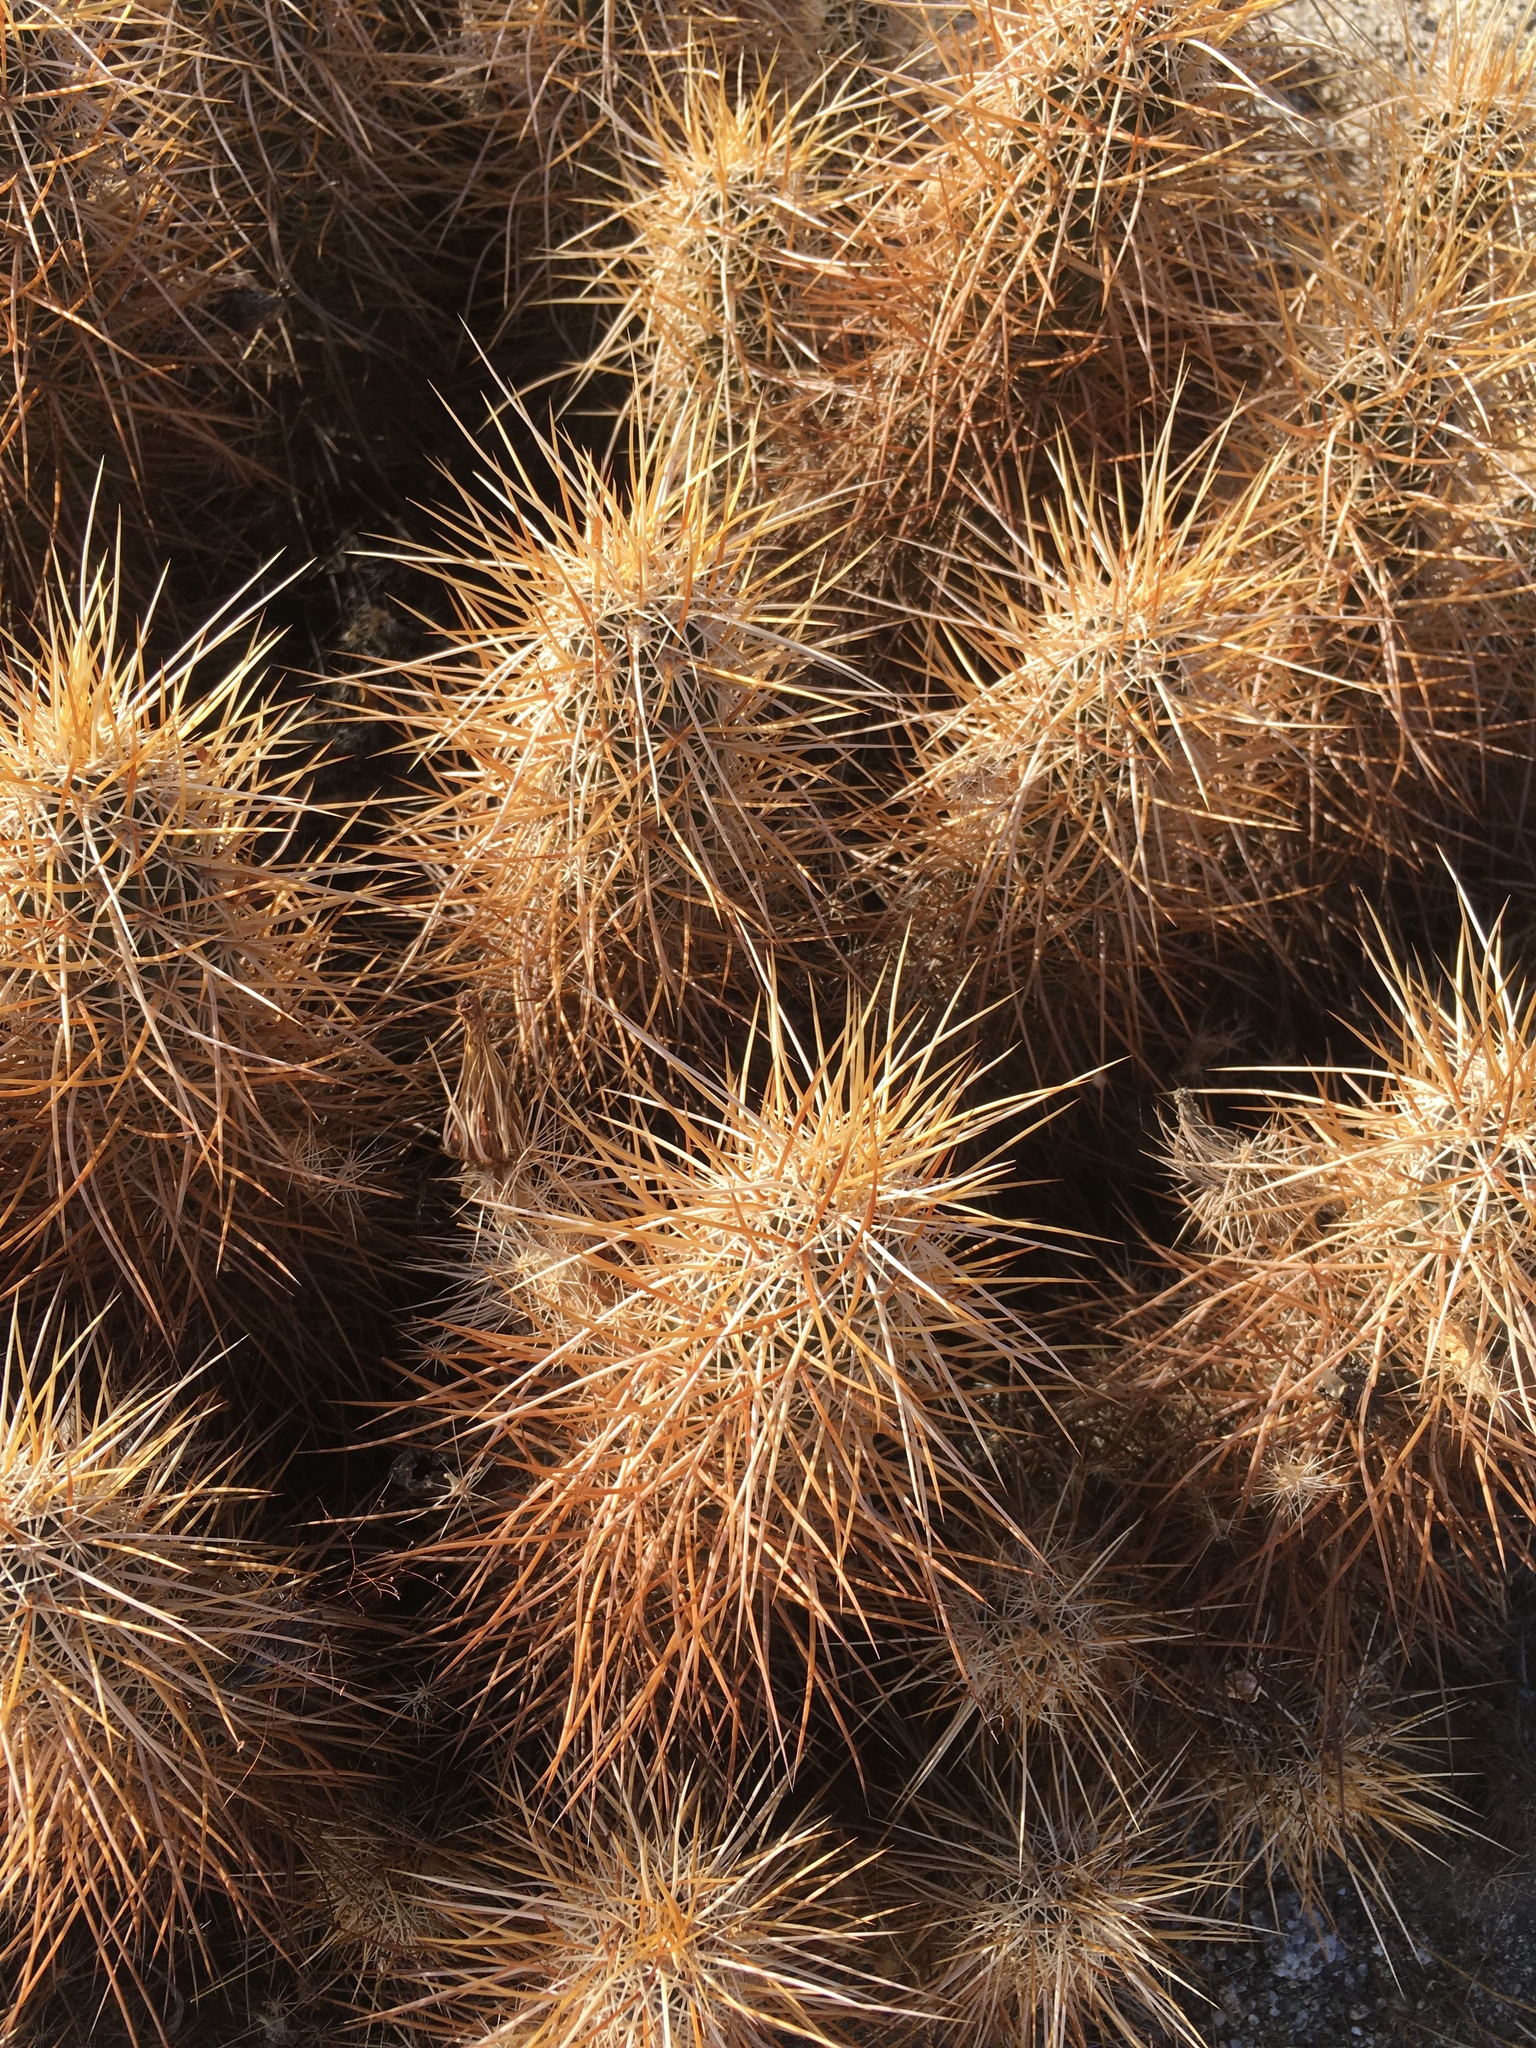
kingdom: Plantae
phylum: Tracheophyta
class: Magnoliopsida
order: Caryophyllales
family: Cactaceae
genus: Echinocereus
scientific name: Echinocereus engelmannii
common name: Engelmann's hedgehog cactus
